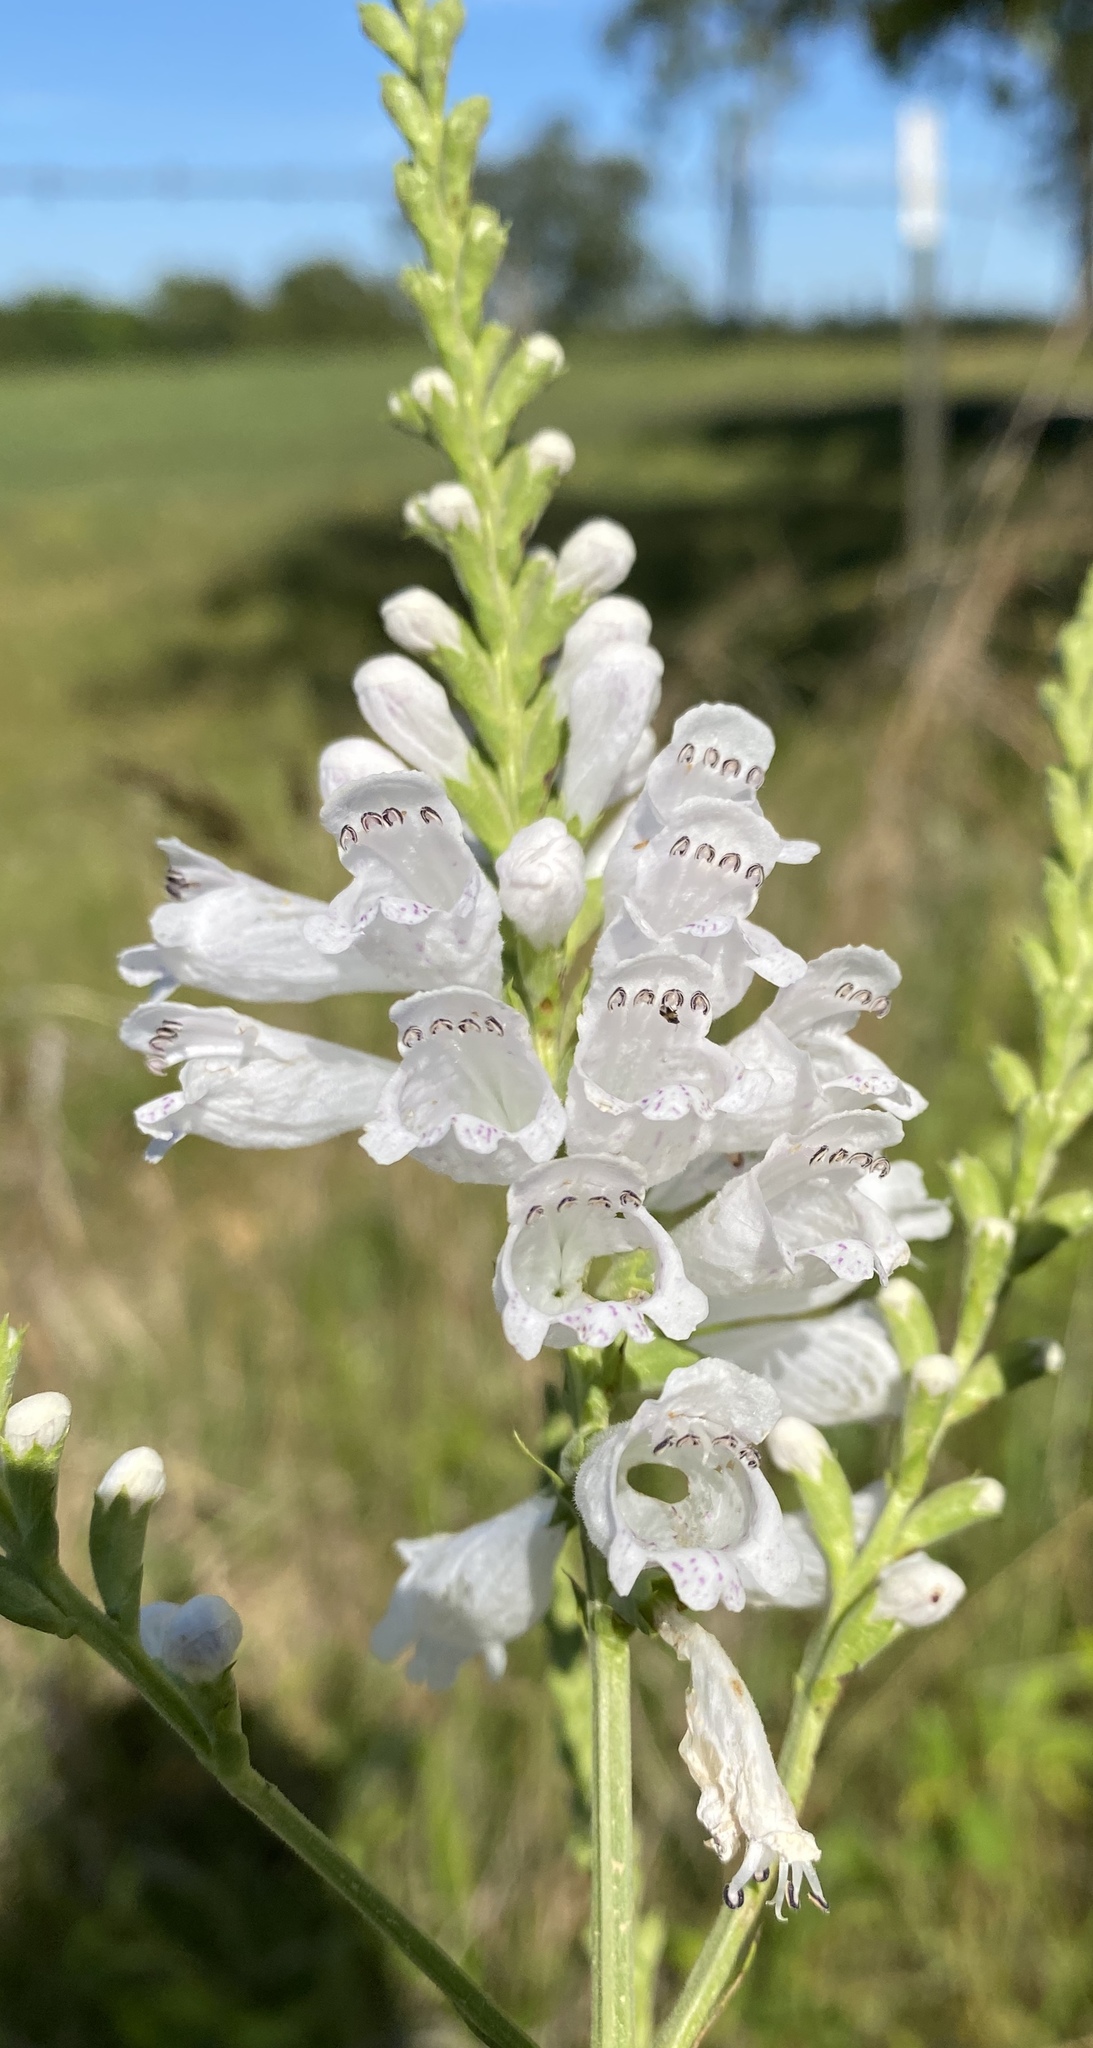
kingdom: Plantae
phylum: Tracheophyta
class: Magnoliopsida
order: Lamiales
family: Lamiaceae
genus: Physostegia
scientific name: Physostegia angustifolia
